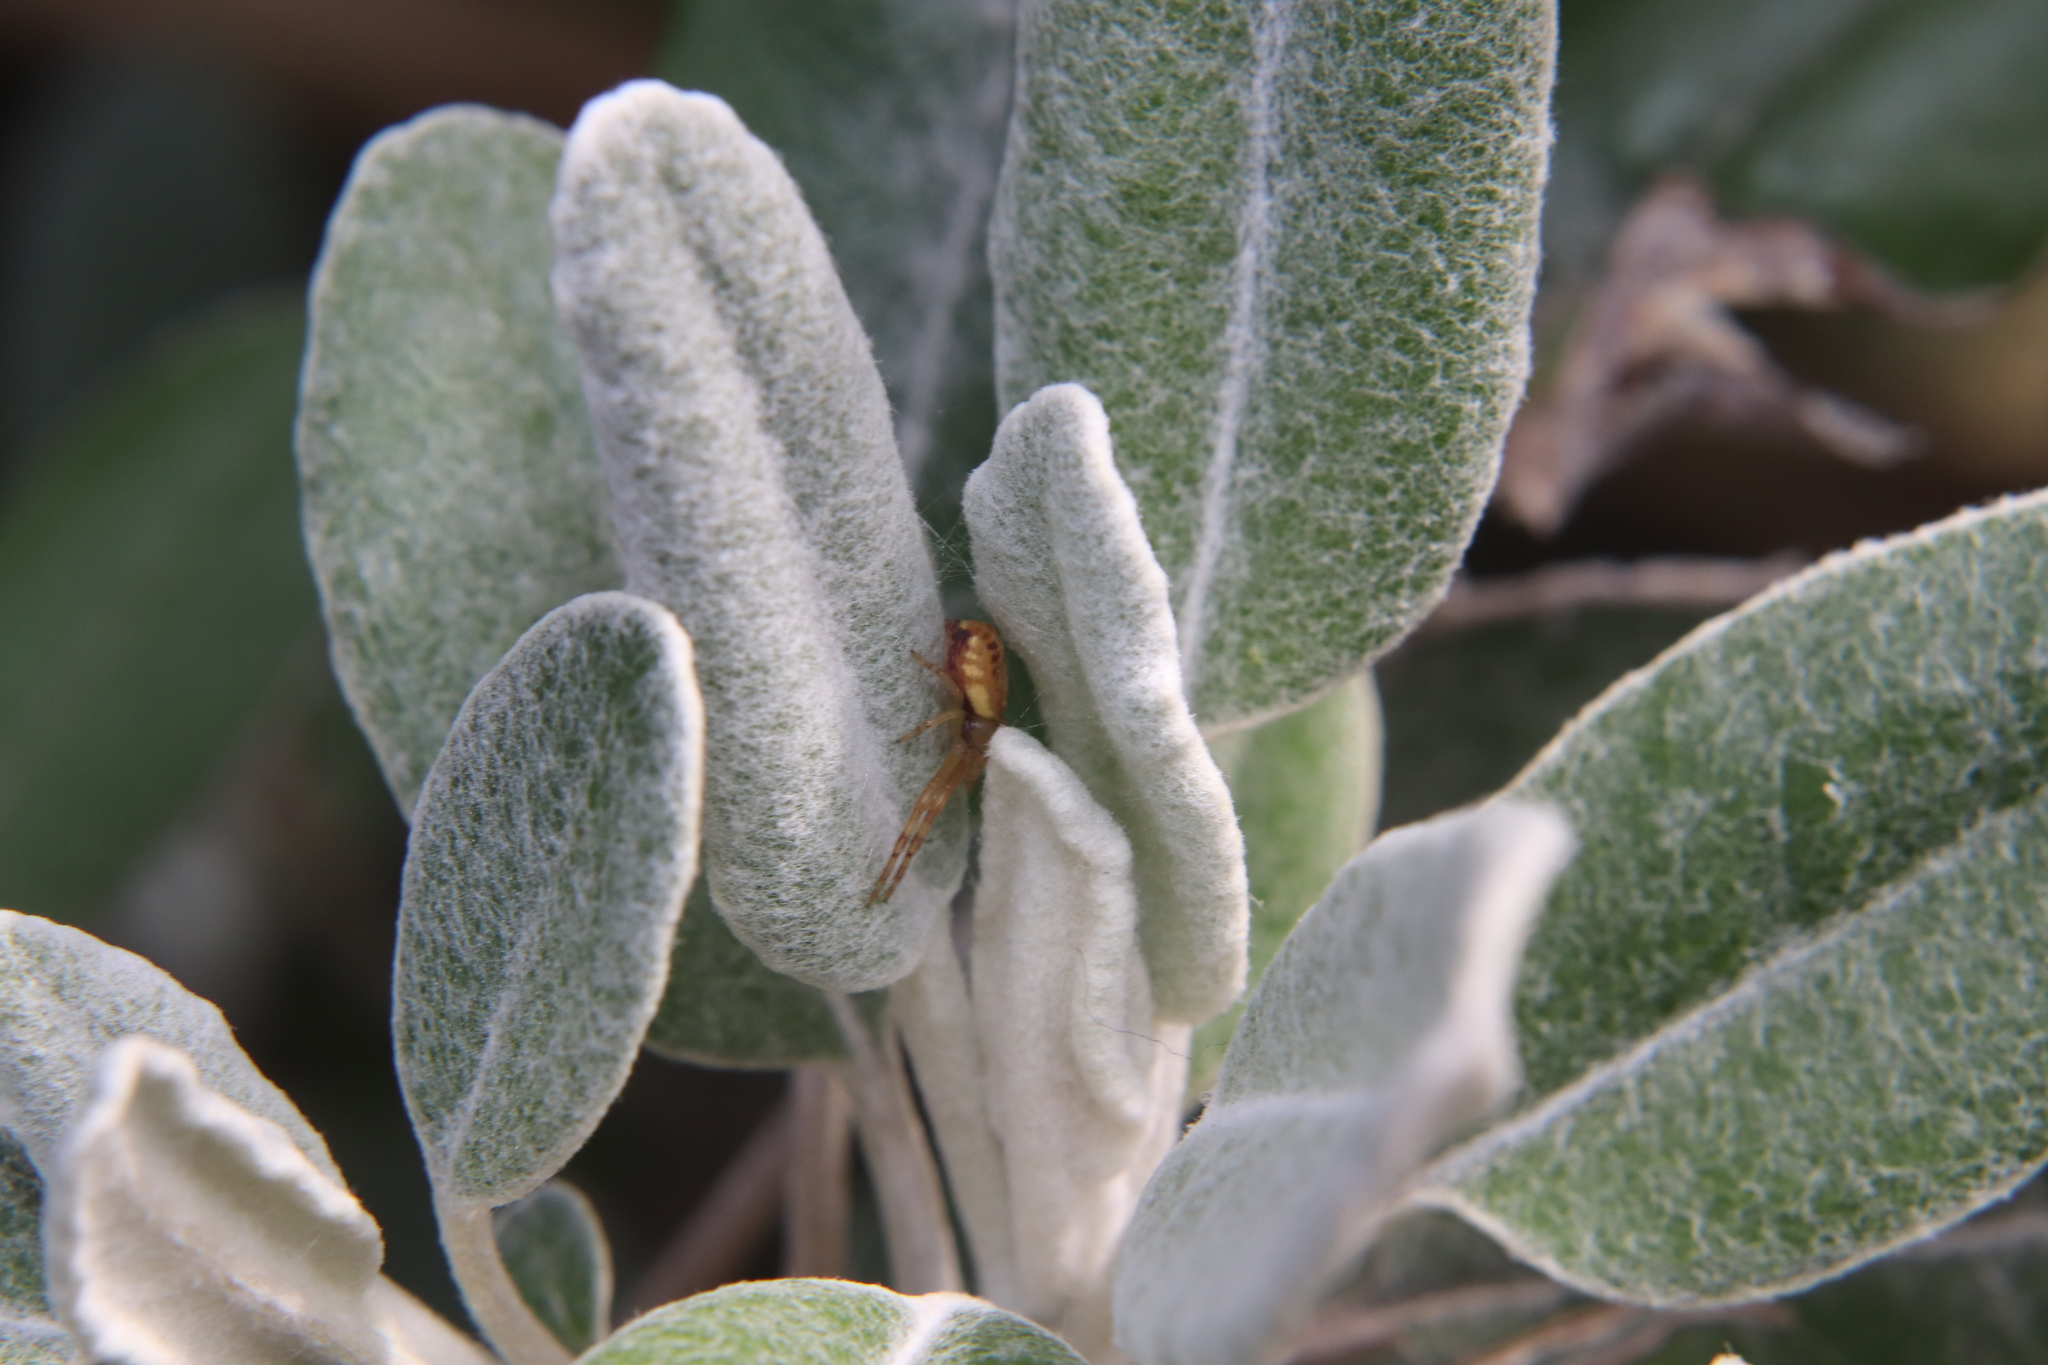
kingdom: Animalia
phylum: Arthropoda
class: Arachnida
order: Araneae
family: Thomisidae
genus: Diaea
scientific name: Diaea ambara
